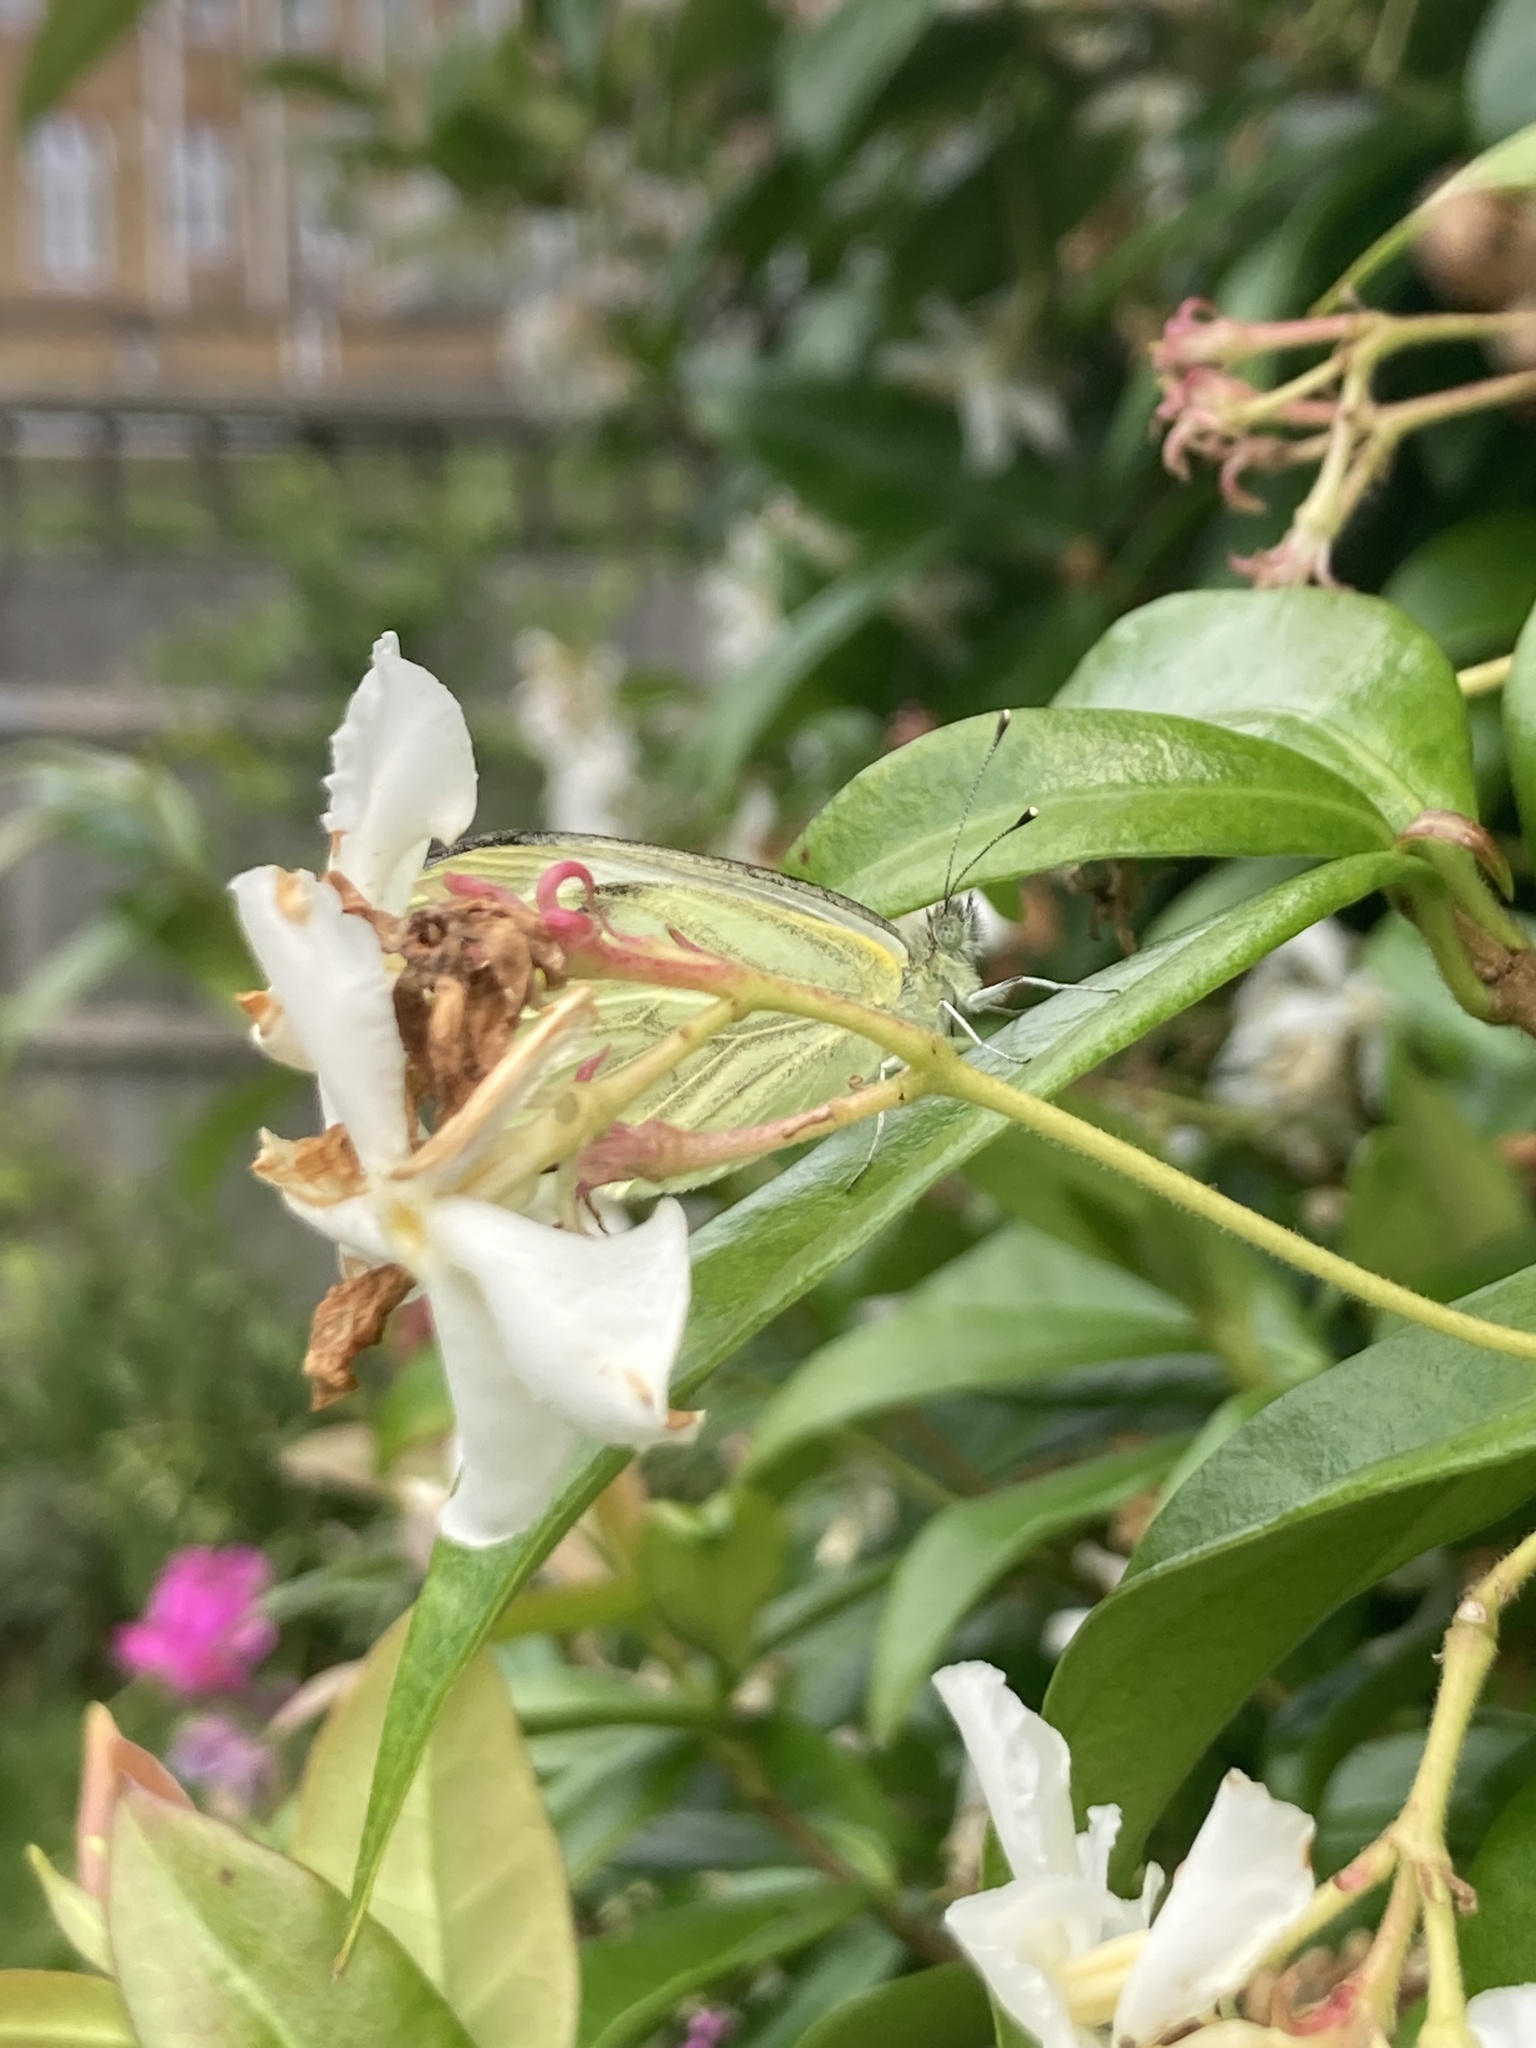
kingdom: Animalia
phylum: Arthropoda
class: Insecta
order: Lepidoptera
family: Pieridae
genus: Pieris
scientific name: Pieris napi
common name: Green-veined white
